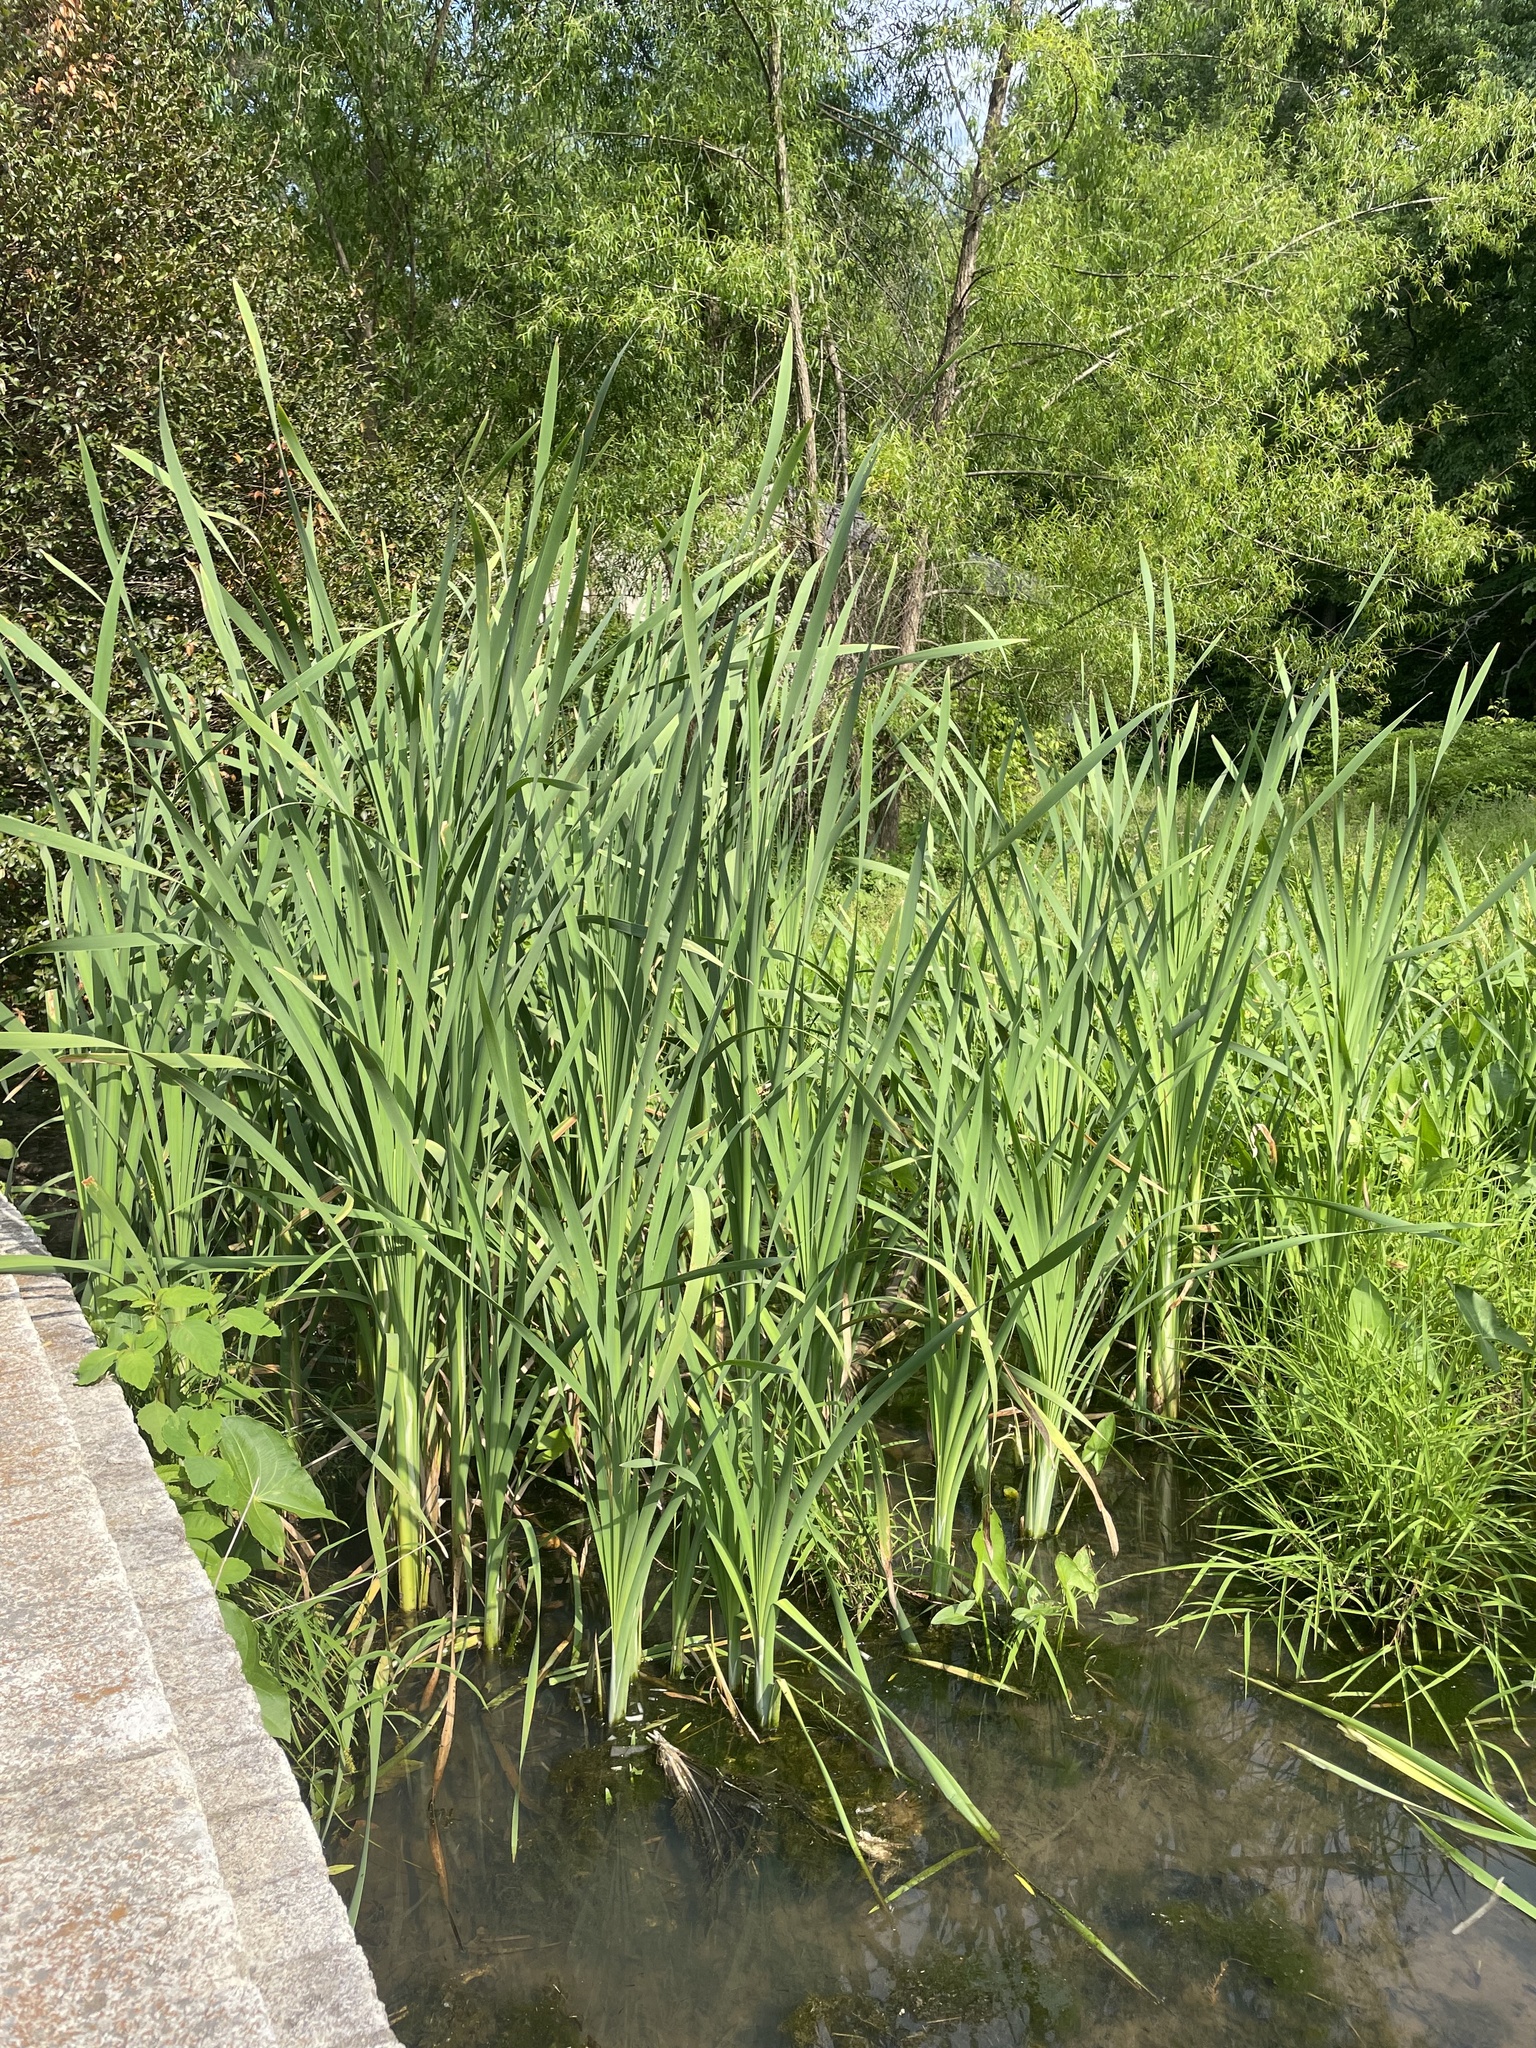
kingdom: Plantae
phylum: Tracheophyta
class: Liliopsida
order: Poales
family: Typhaceae
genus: Typha
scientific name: Typha latifolia
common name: Broadleaf cattail
